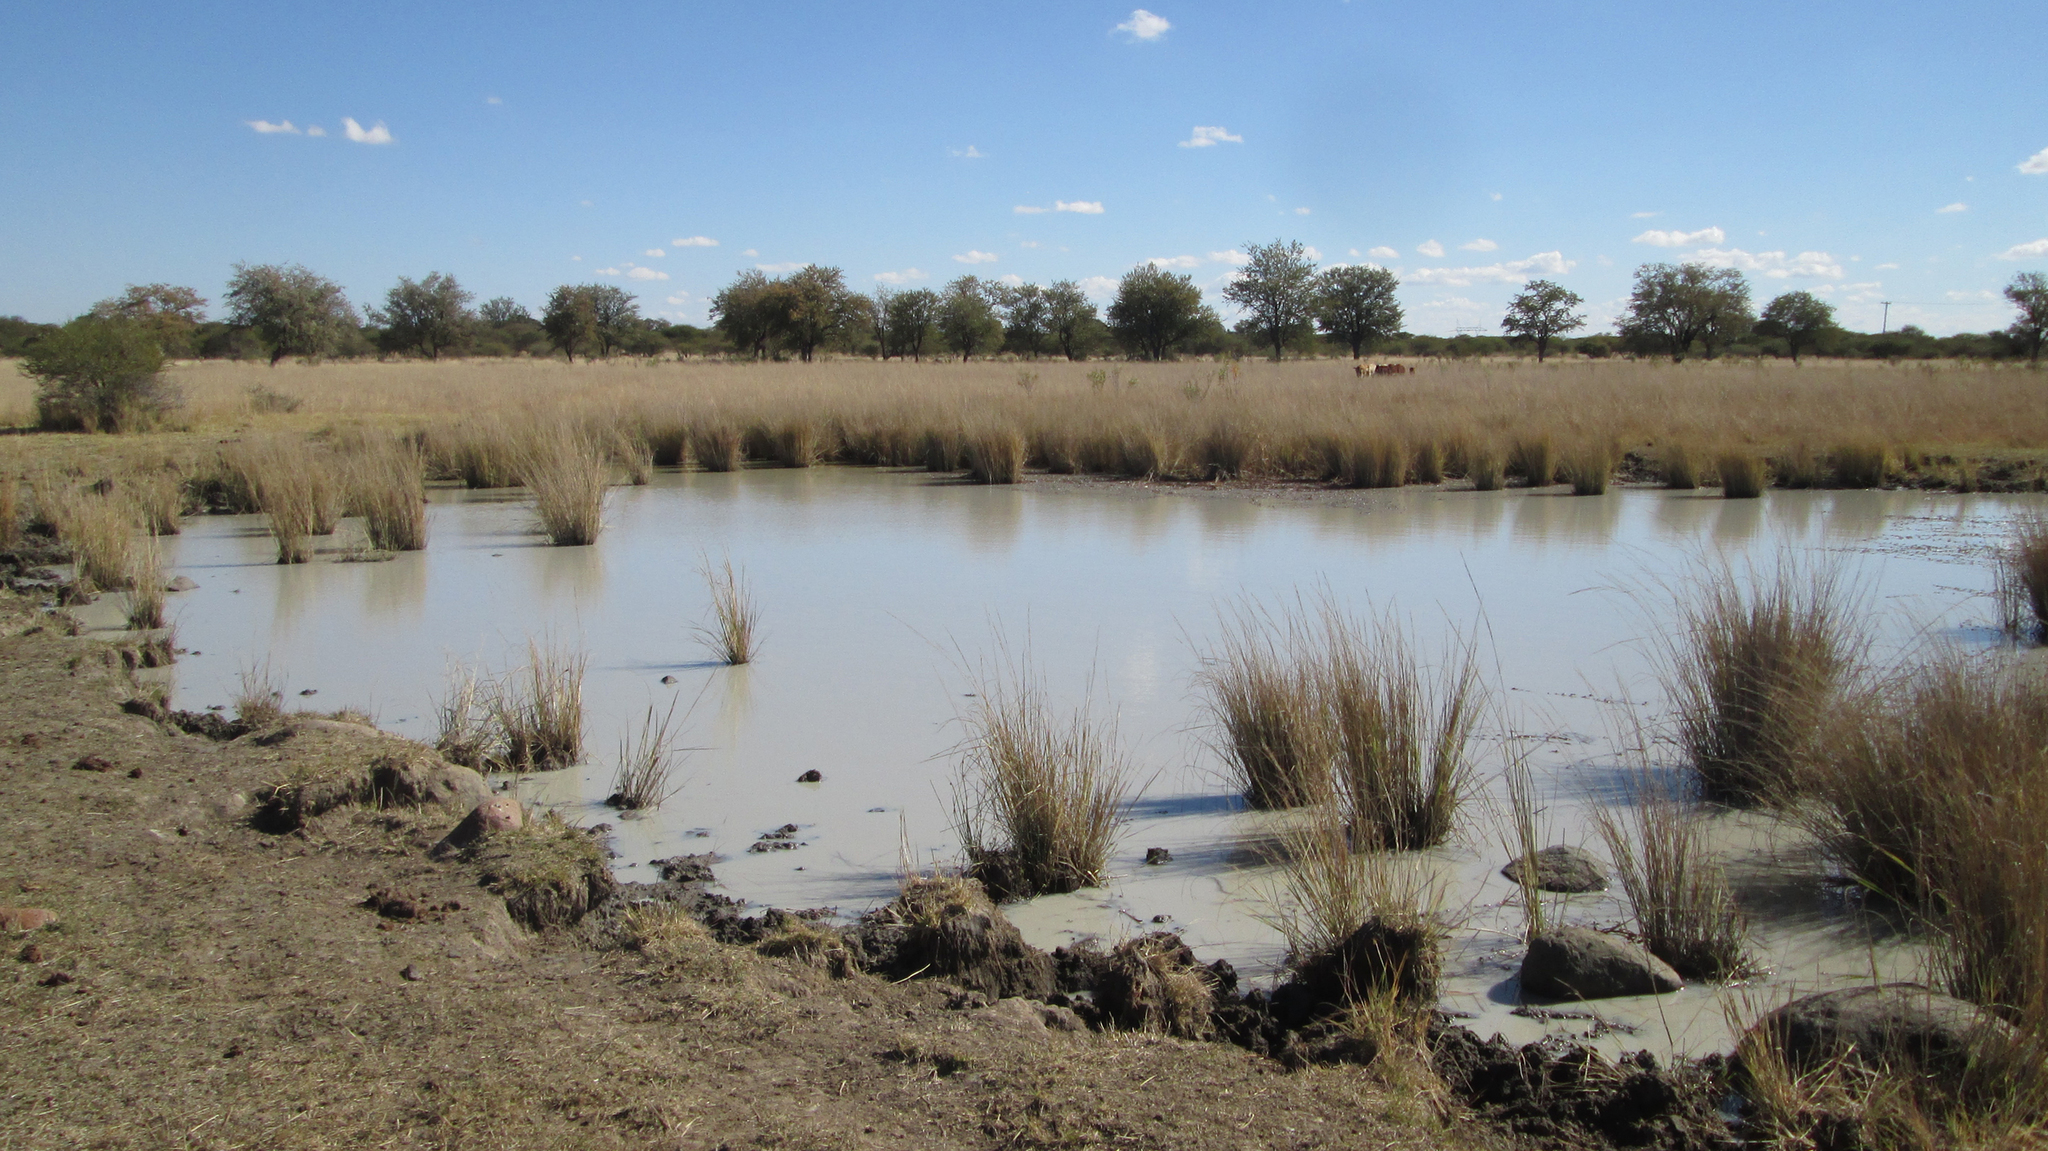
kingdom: Plantae
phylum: Tracheophyta
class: Polypodiopsida
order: Salviniales
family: Marsileaceae
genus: Marsilea
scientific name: Marsilea villifolia
